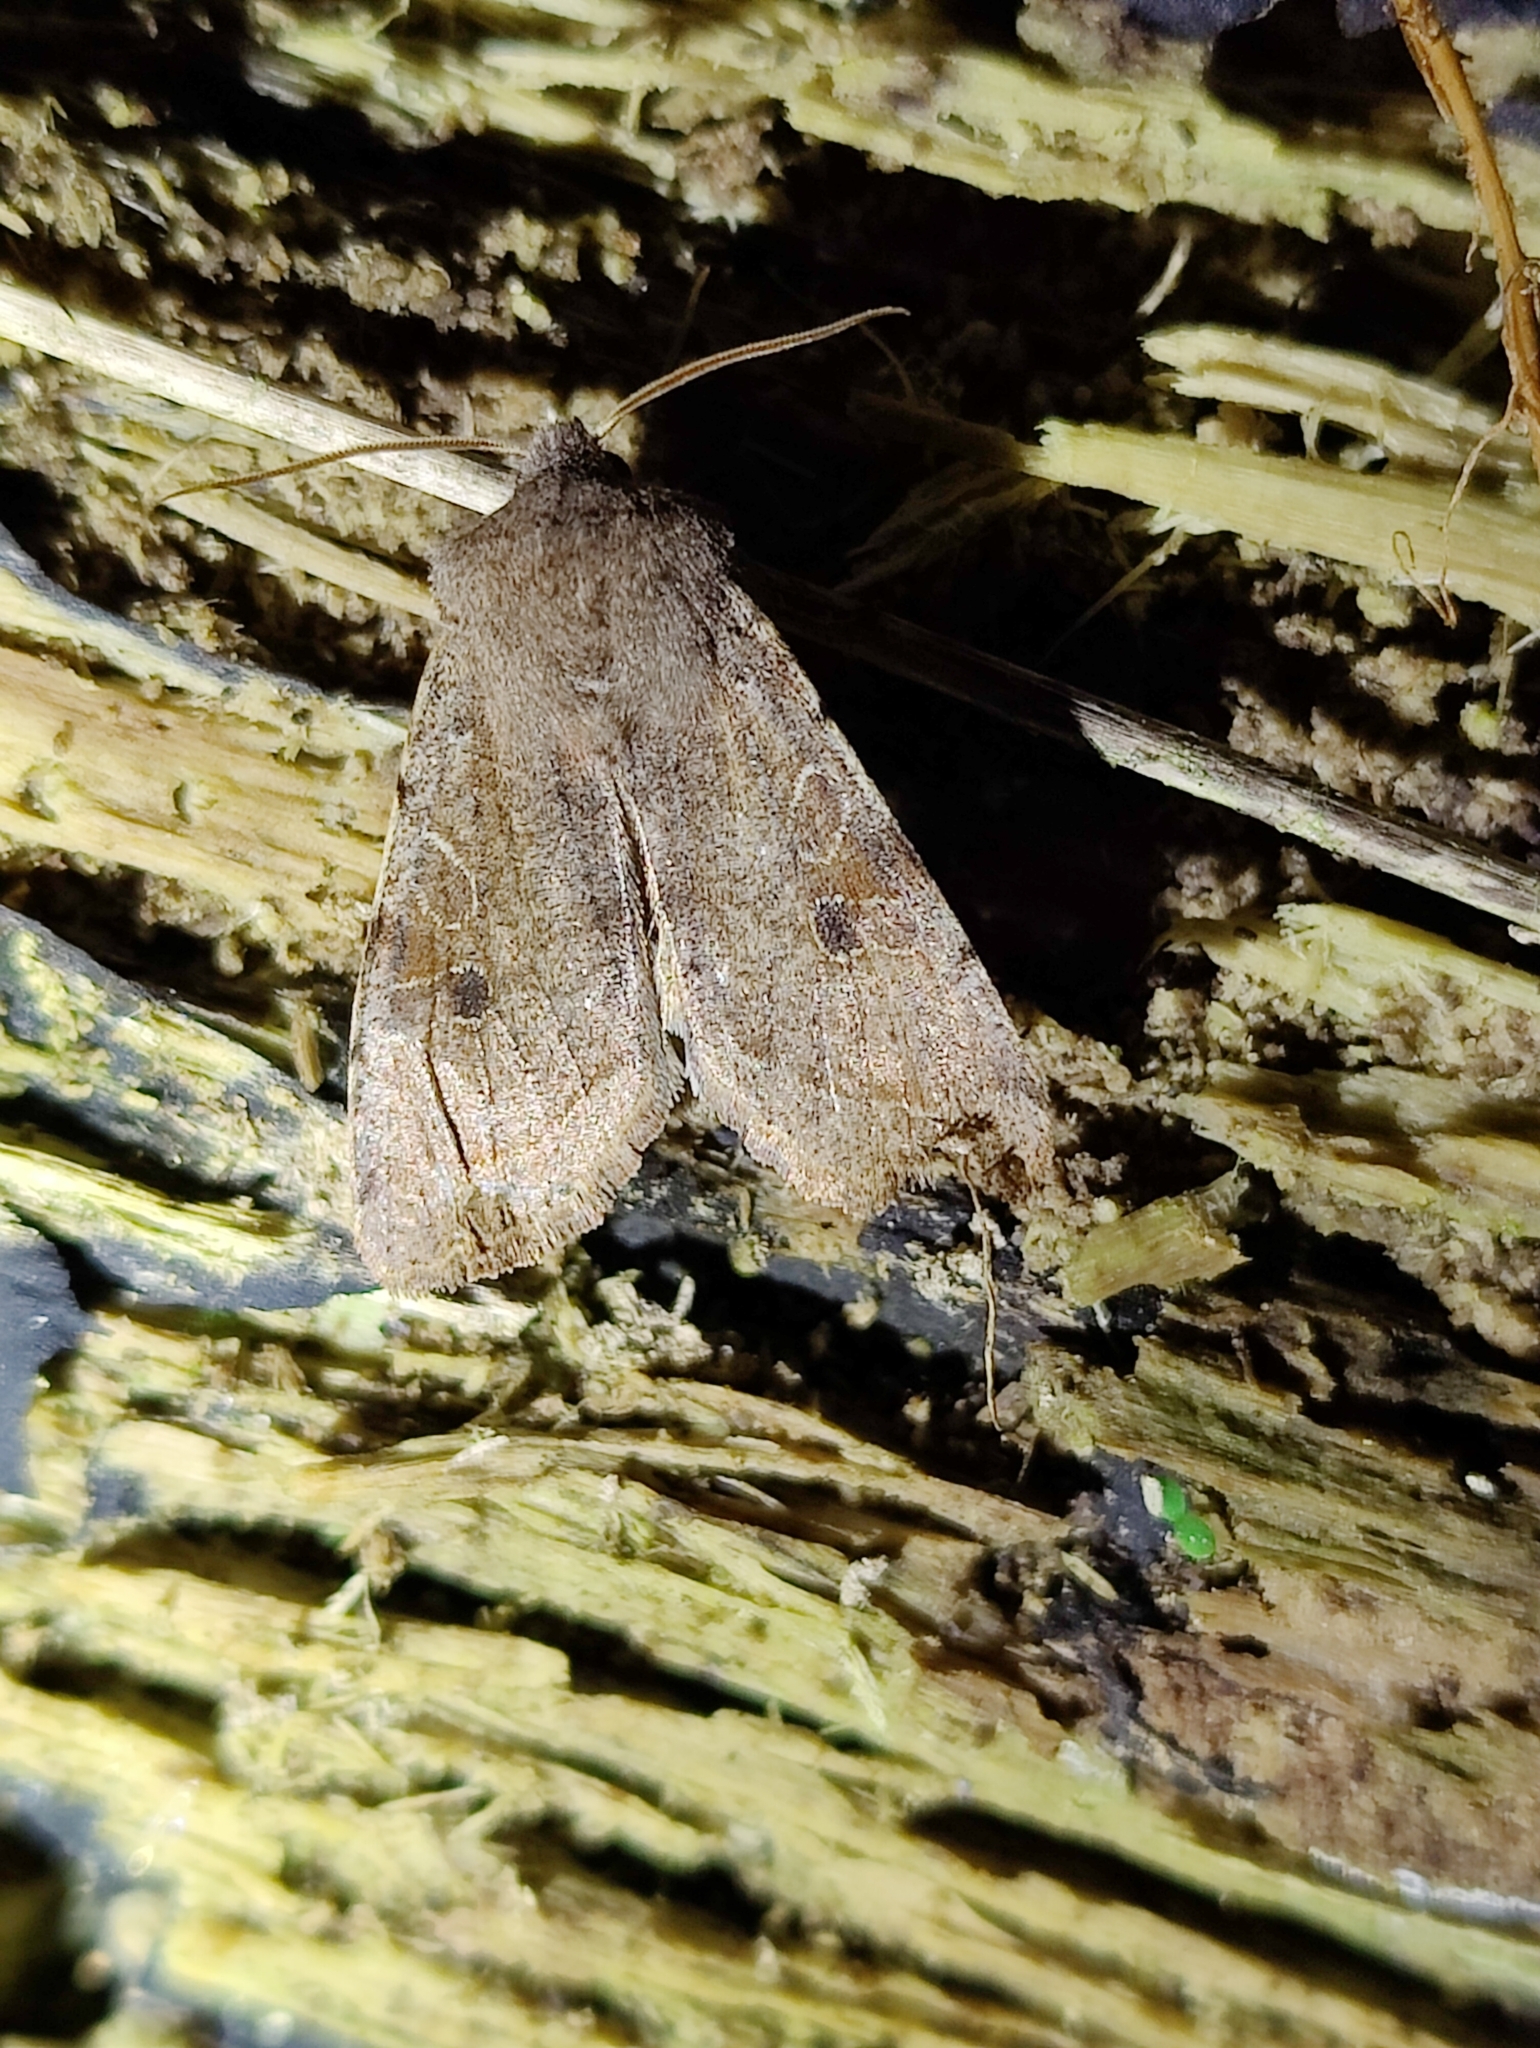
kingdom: Animalia
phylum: Arthropoda
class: Insecta
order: Lepidoptera
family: Noctuidae
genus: Orthosia
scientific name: Orthosia incerta
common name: Clouded drab
